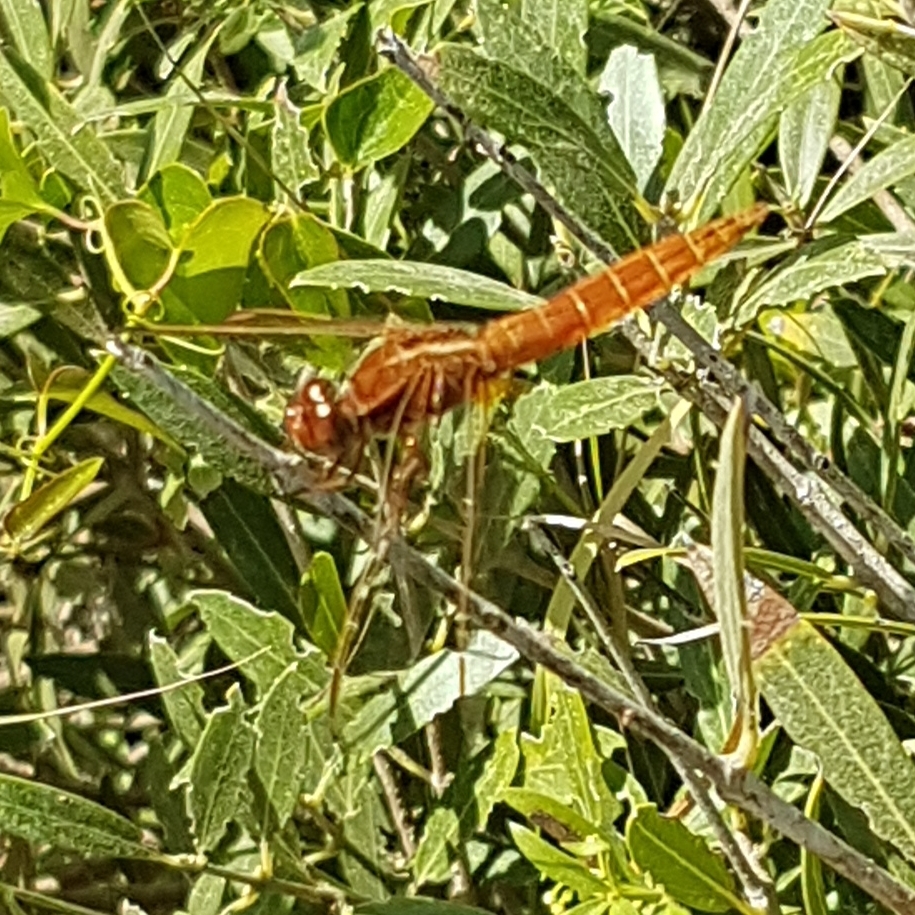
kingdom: Animalia
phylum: Arthropoda
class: Insecta
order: Odonata
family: Libellulidae
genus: Crocothemis
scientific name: Crocothemis erythraea
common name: Scarlet dragonfly
